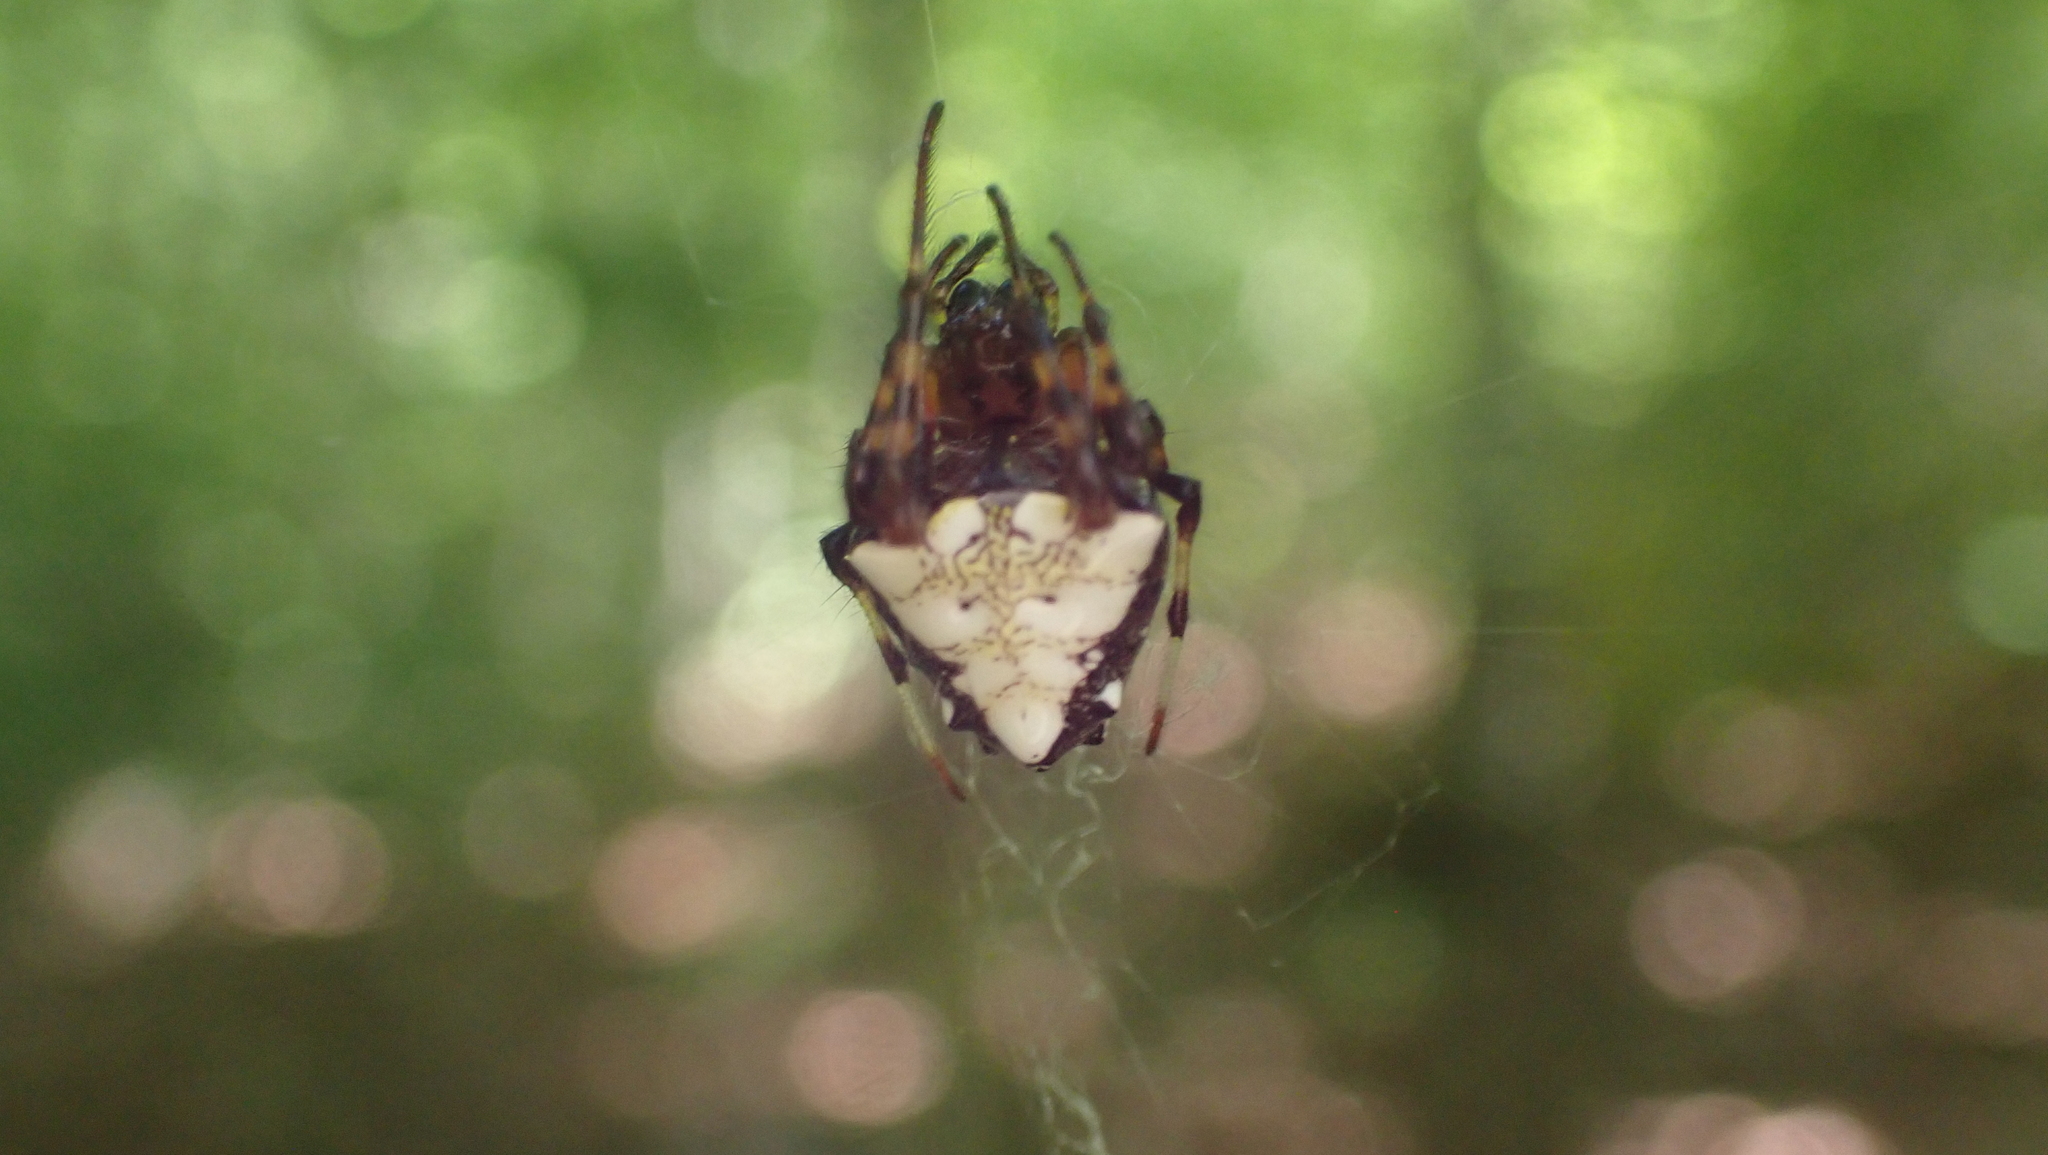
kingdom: Animalia
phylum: Arthropoda
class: Arachnida
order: Araneae
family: Araneidae
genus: Verrucosa
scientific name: Verrucosa arenata
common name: Orb weavers
